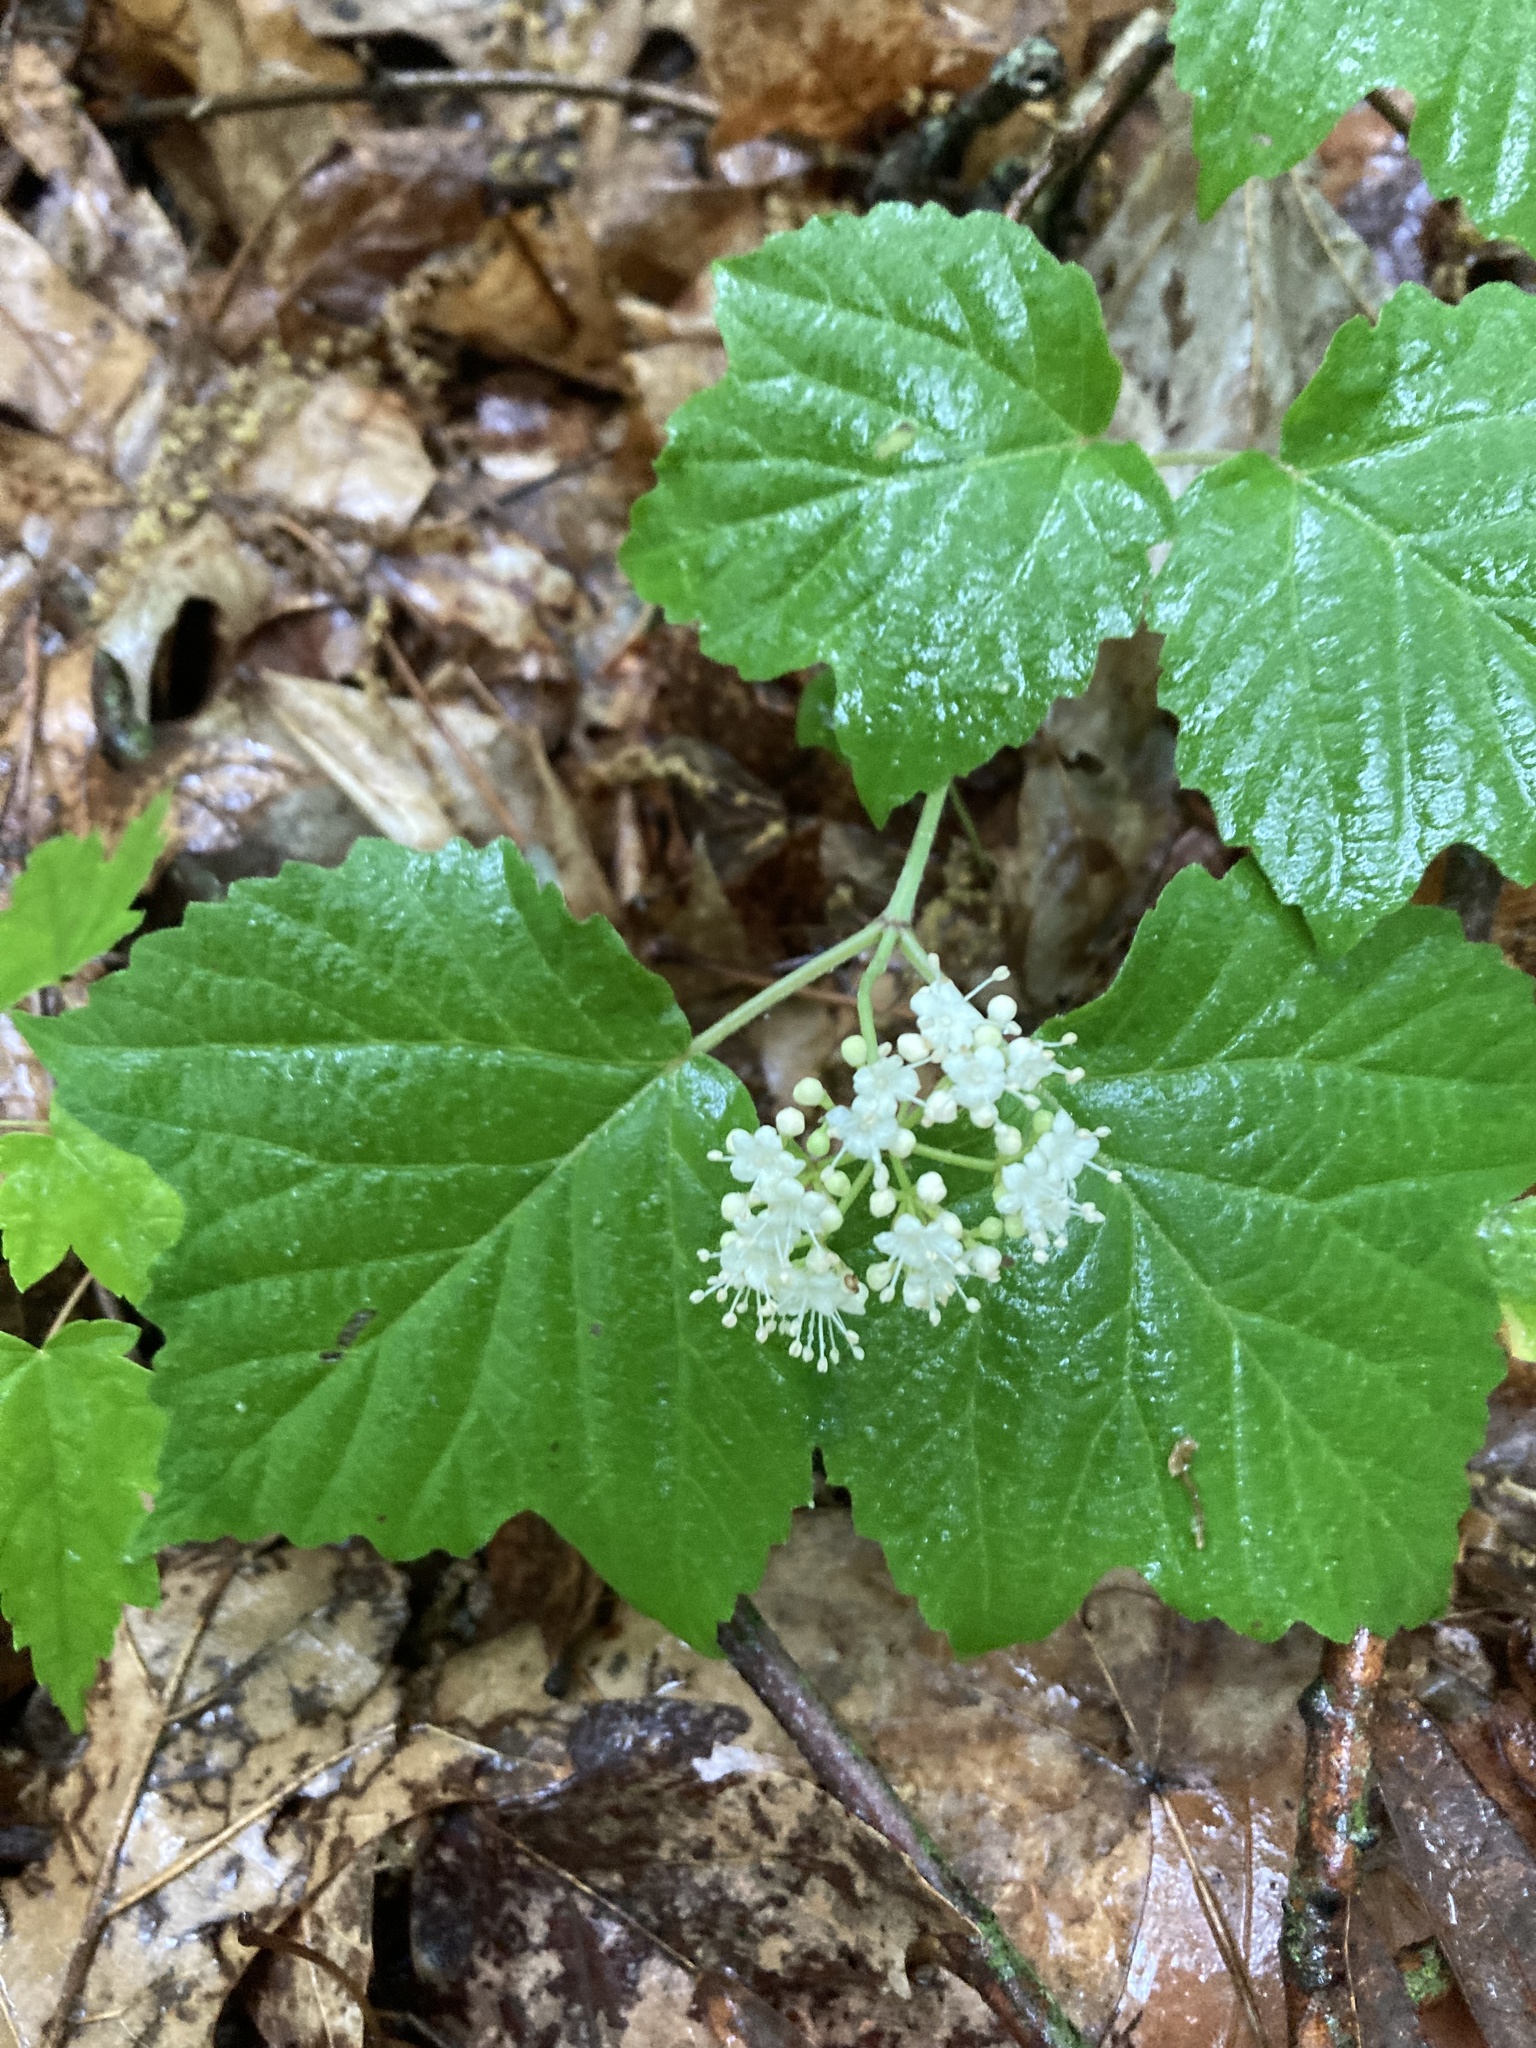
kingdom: Plantae
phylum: Tracheophyta
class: Magnoliopsida
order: Dipsacales
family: Viburnaceae
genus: Viburnum
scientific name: Viburnum acerifolium
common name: Dockmackie
